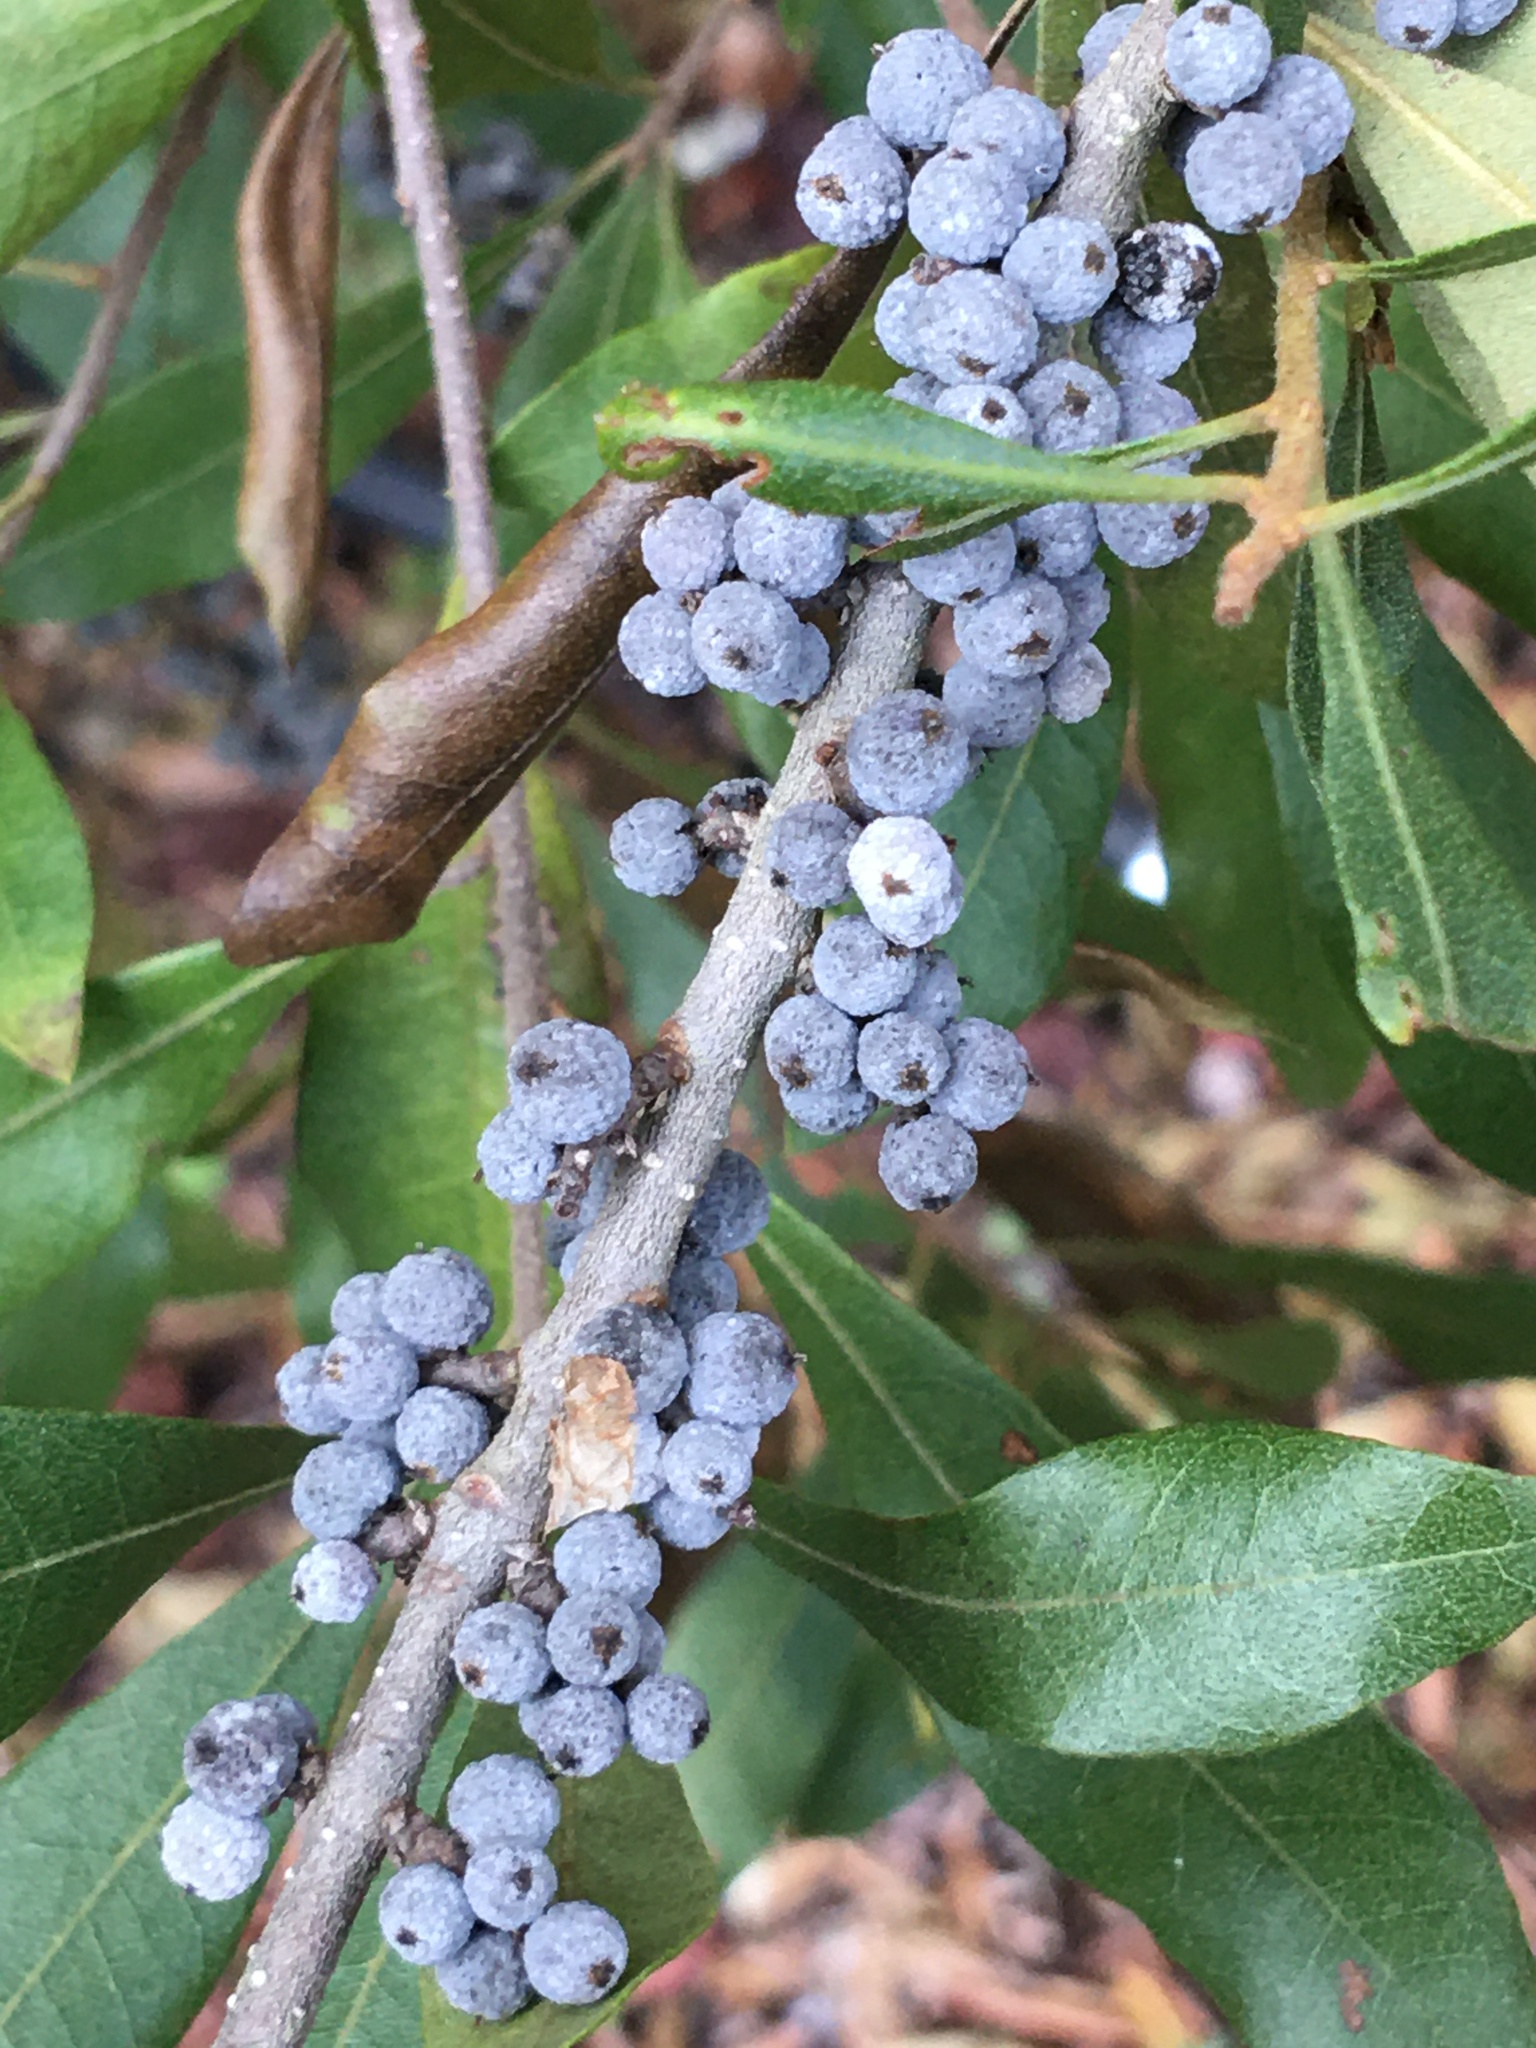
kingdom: Plantae
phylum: Tracheophyta
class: Magnoliopsida
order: Fagales
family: Myricaceae
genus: Morella
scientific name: Morella cerifera
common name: Wax myrtle
